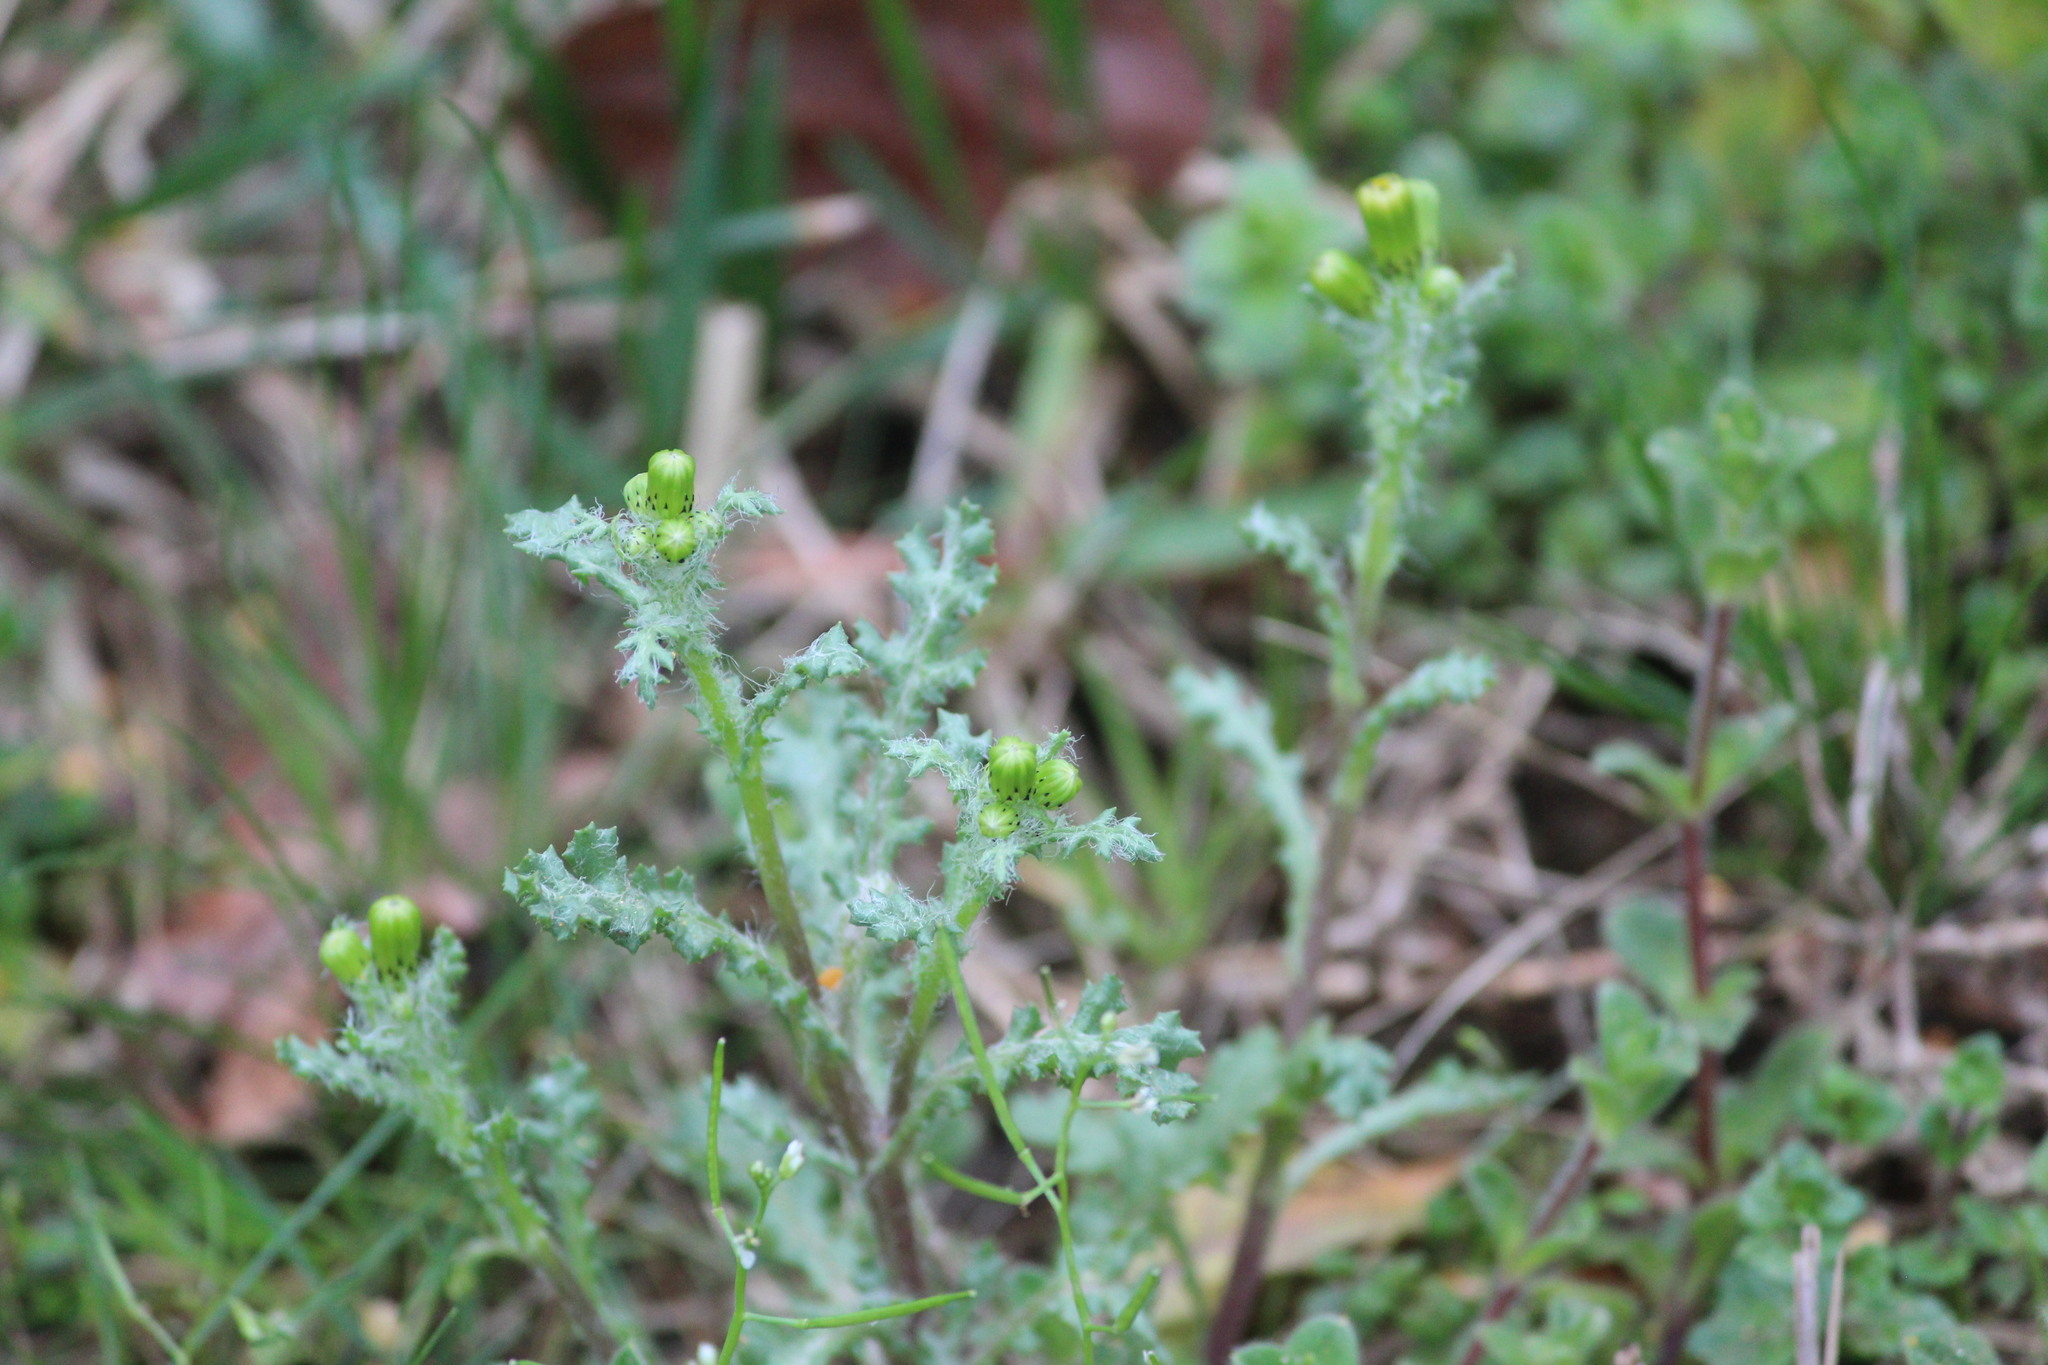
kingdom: Plantae
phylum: Tracheophyta
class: Magnoliopsida
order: Asterales
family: Asteraceae
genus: Senecio
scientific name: Senecio vulgaris
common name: Old-man-in-the-spring
